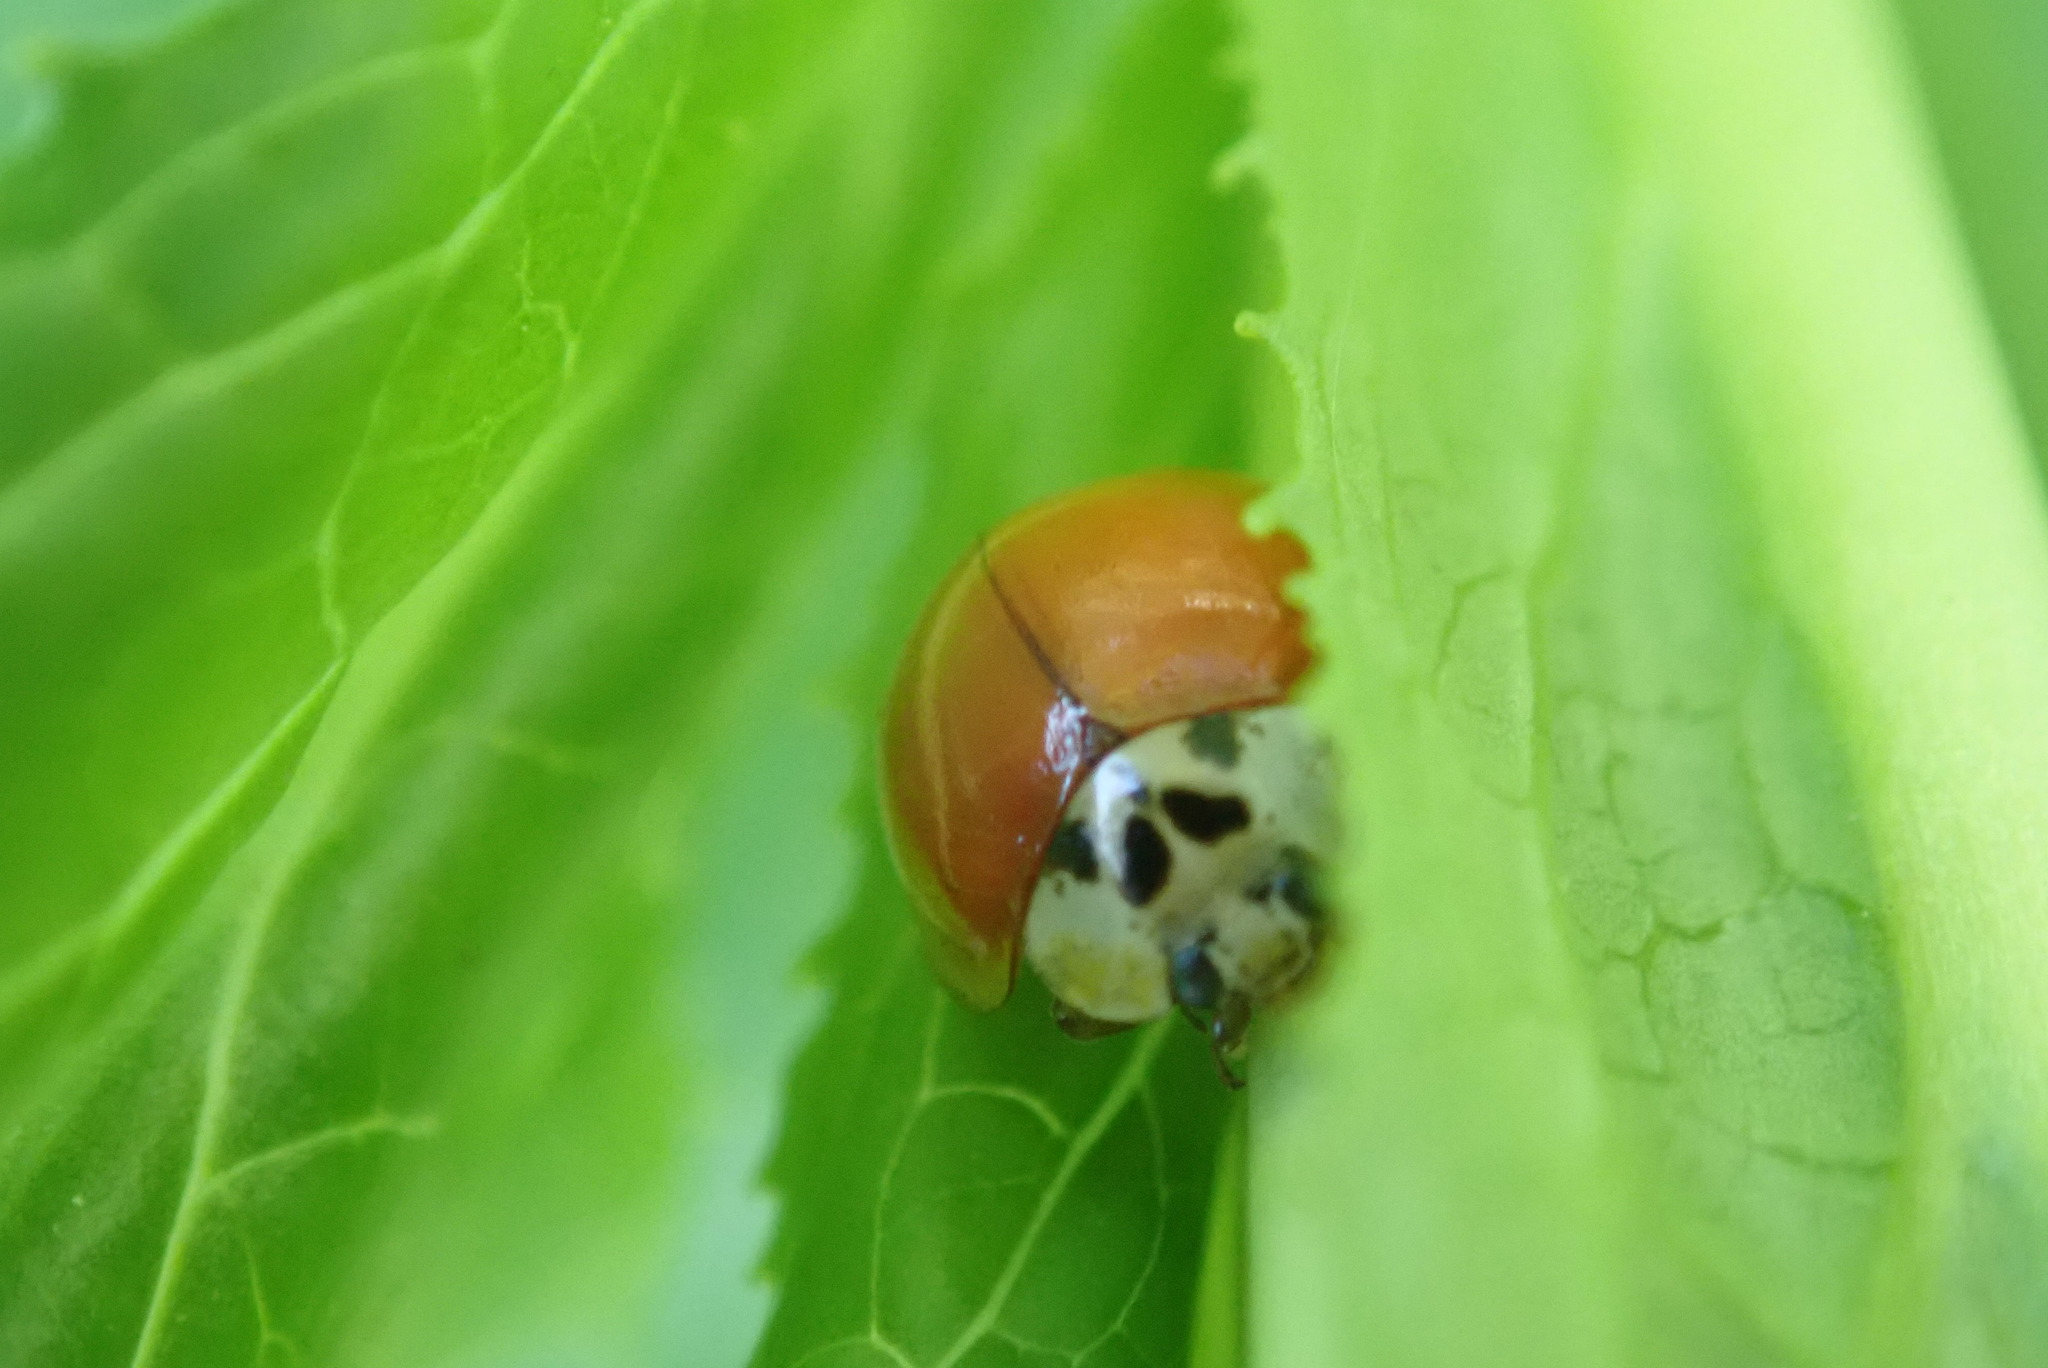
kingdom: Animalia
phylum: Arthropoda
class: Insecta
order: Coleoptera
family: Coccinellidae
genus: Harmonia
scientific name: Harmonia axyridis
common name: Harlequin ladybird
